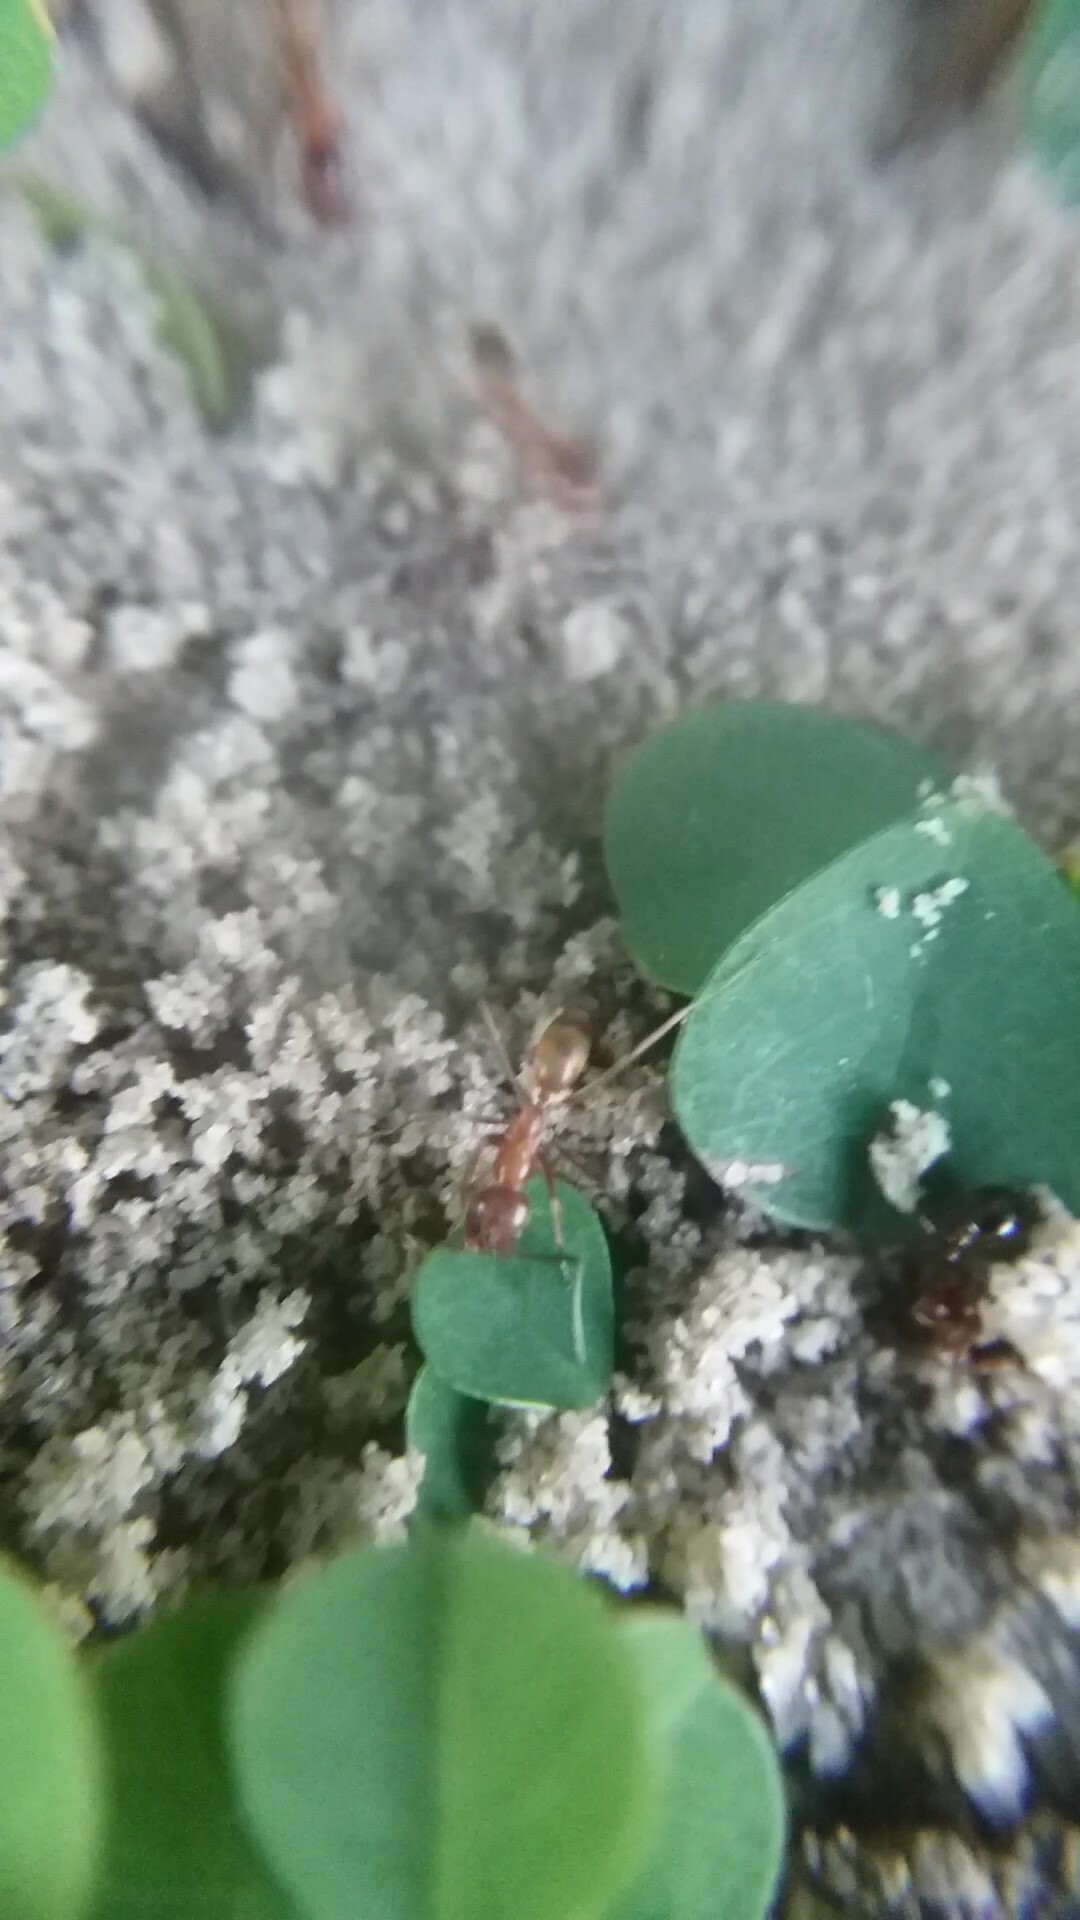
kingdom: Animalia
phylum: Arthropoda
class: Insecta
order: Hymenoptera
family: Formicidae
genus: Dorymyrmex
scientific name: Dorymyrmex bureni
